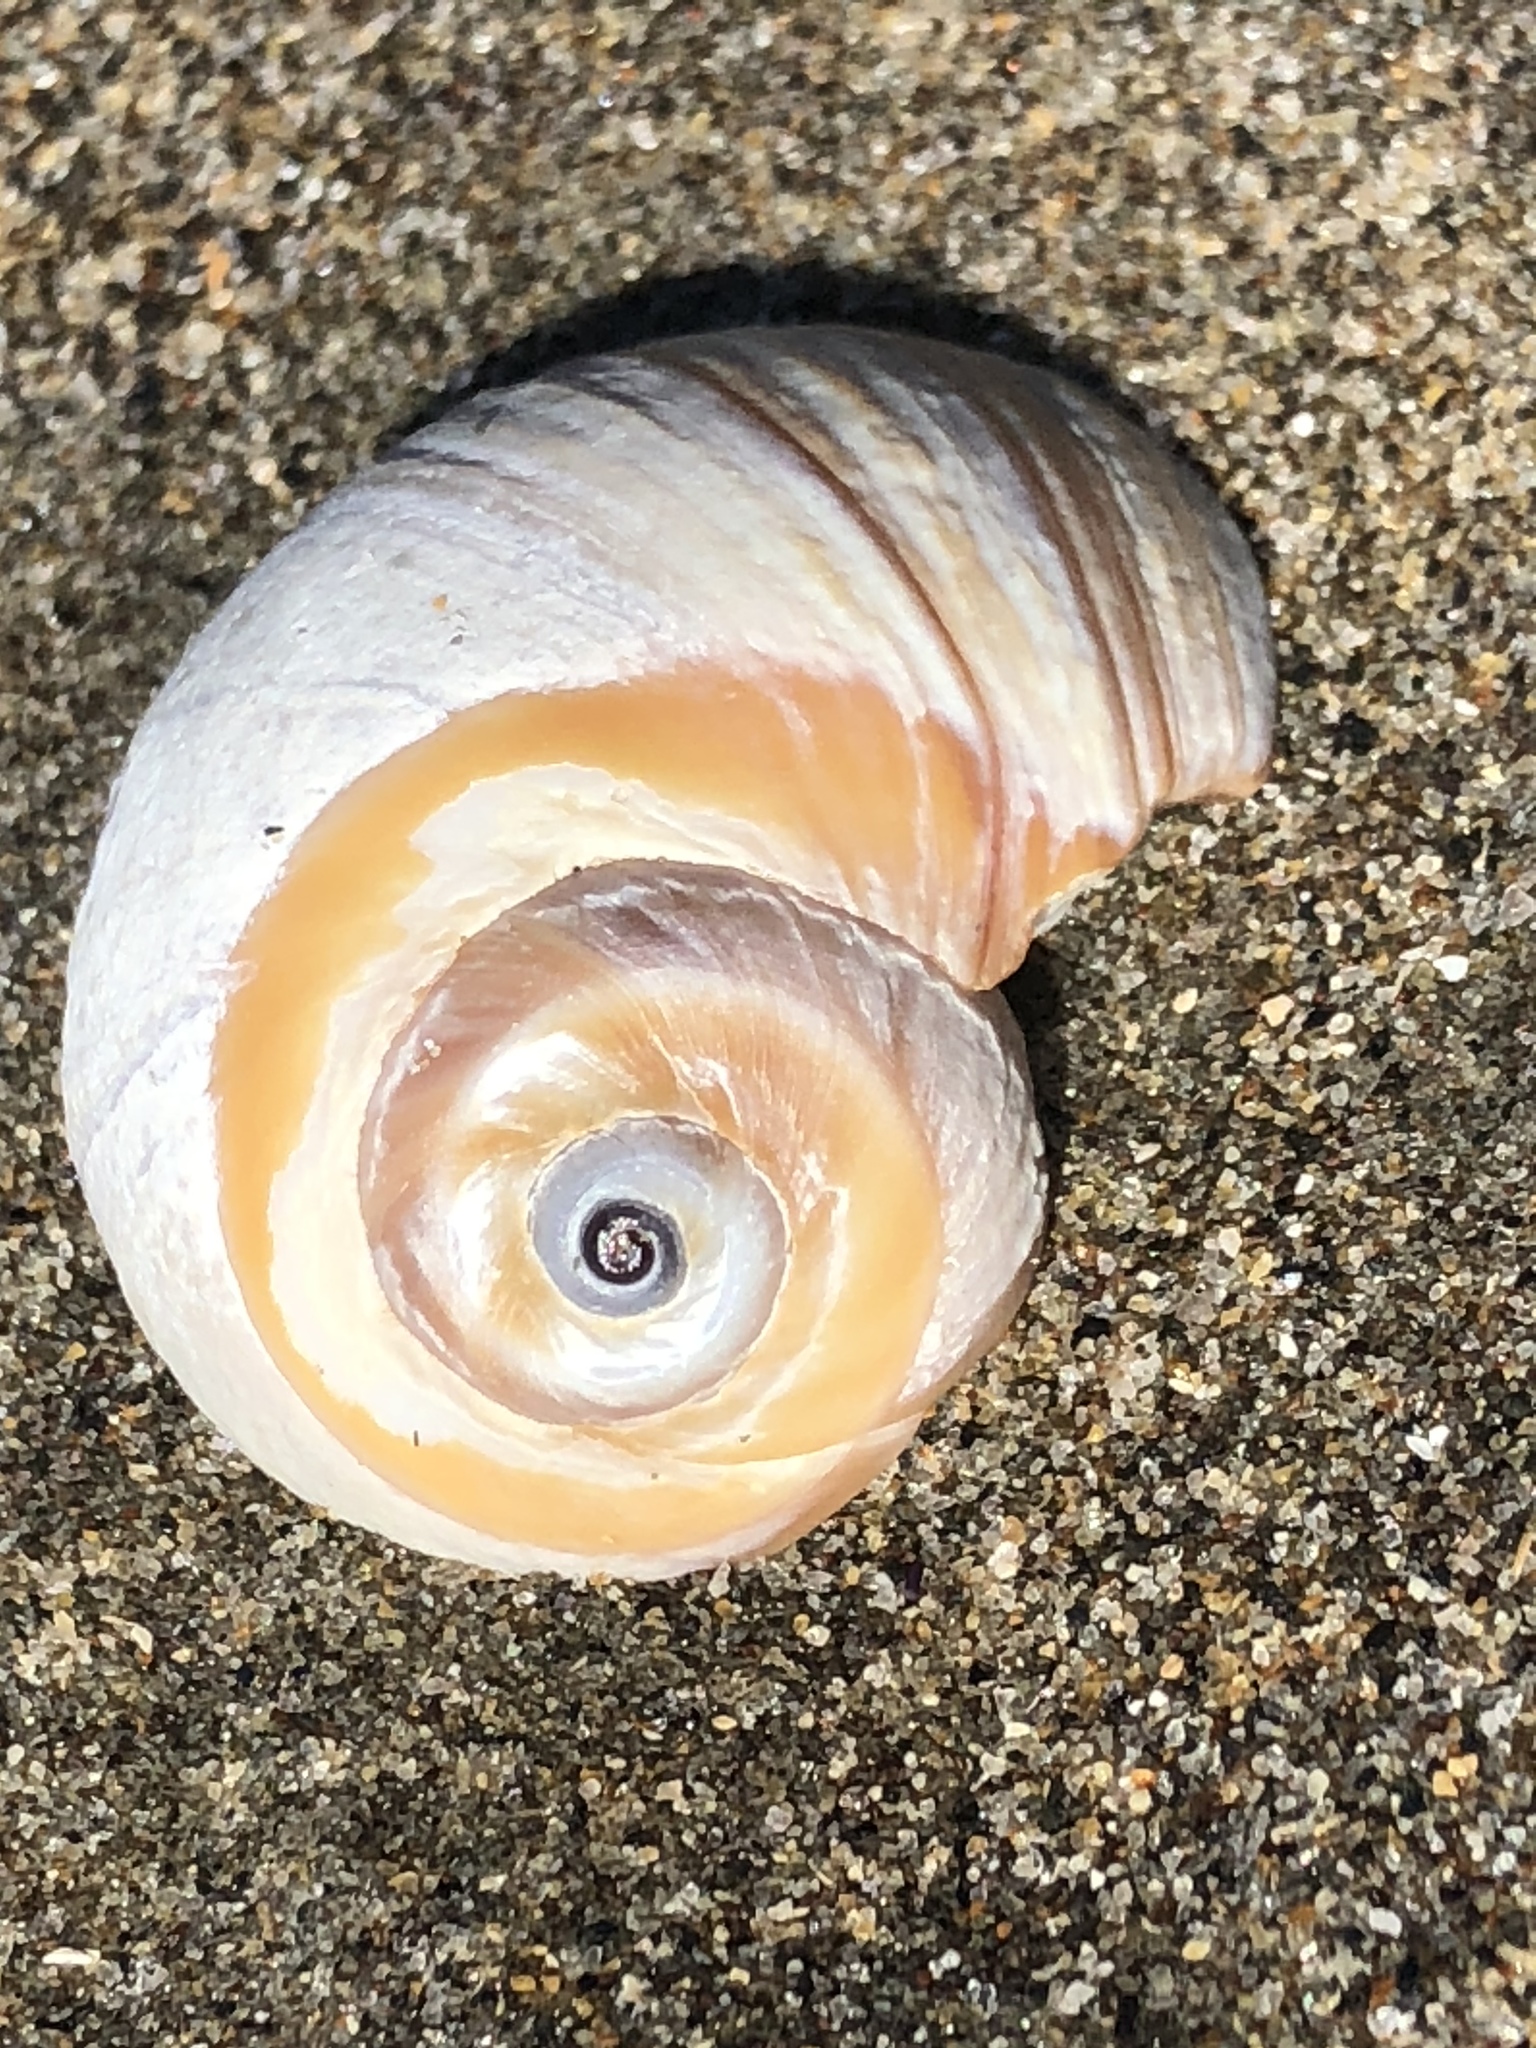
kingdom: Animalia
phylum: Mollusca
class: Gastropoda
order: Littorinimorpha
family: Naticidae
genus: Glossaulax
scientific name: Glossaulax reclusiana
